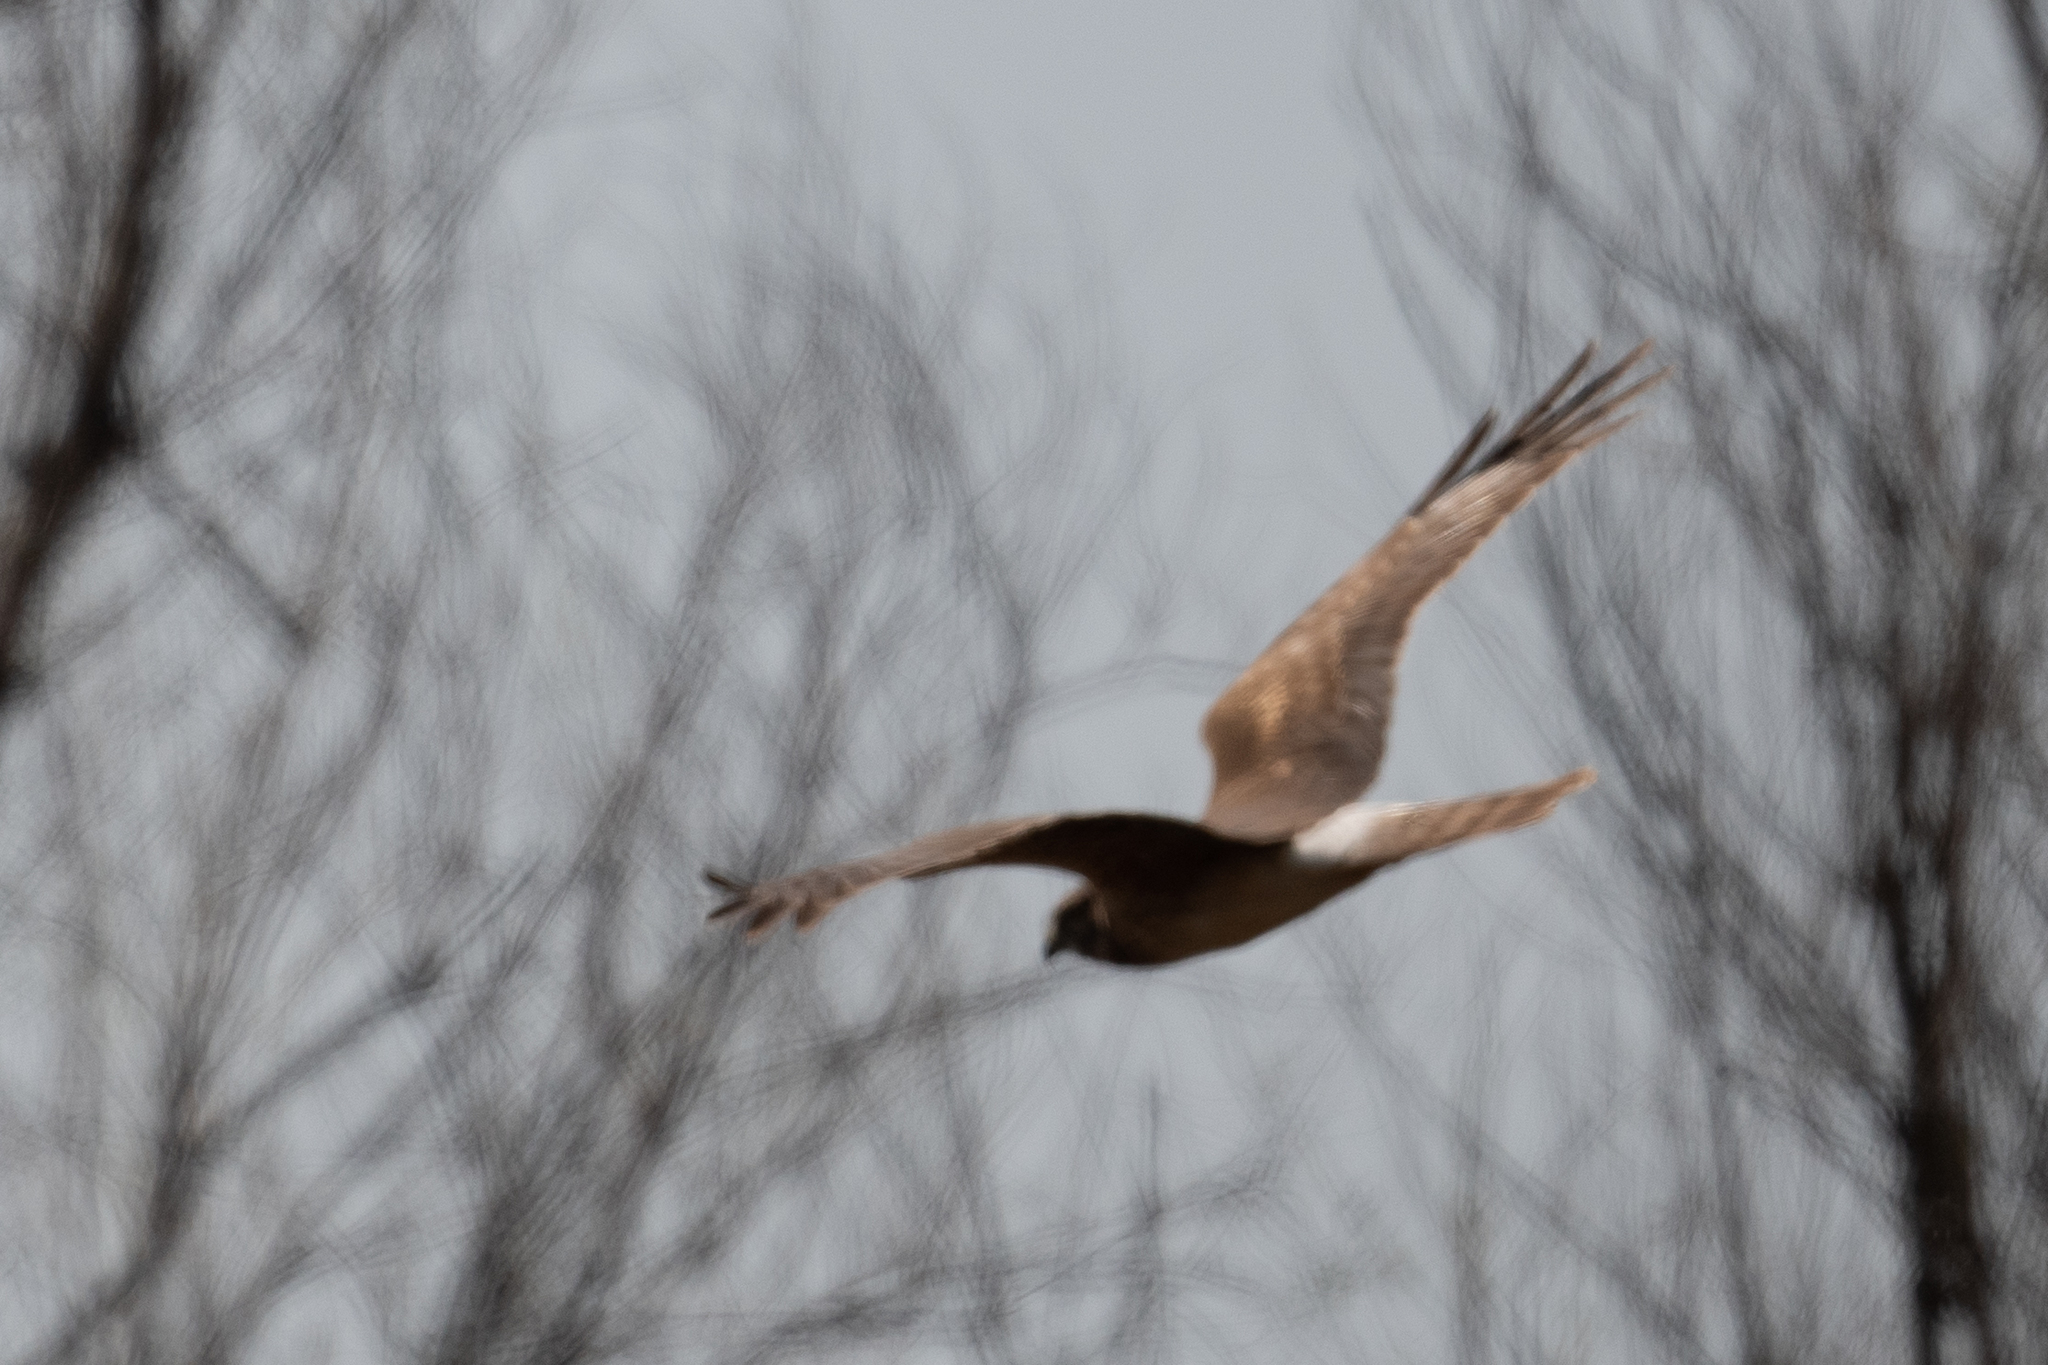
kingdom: Animalia
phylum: Chordata
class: Aves
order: Accipitriformes
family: Accipitridae
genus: Circus
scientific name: Circus cyaneus
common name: Hen harrier
